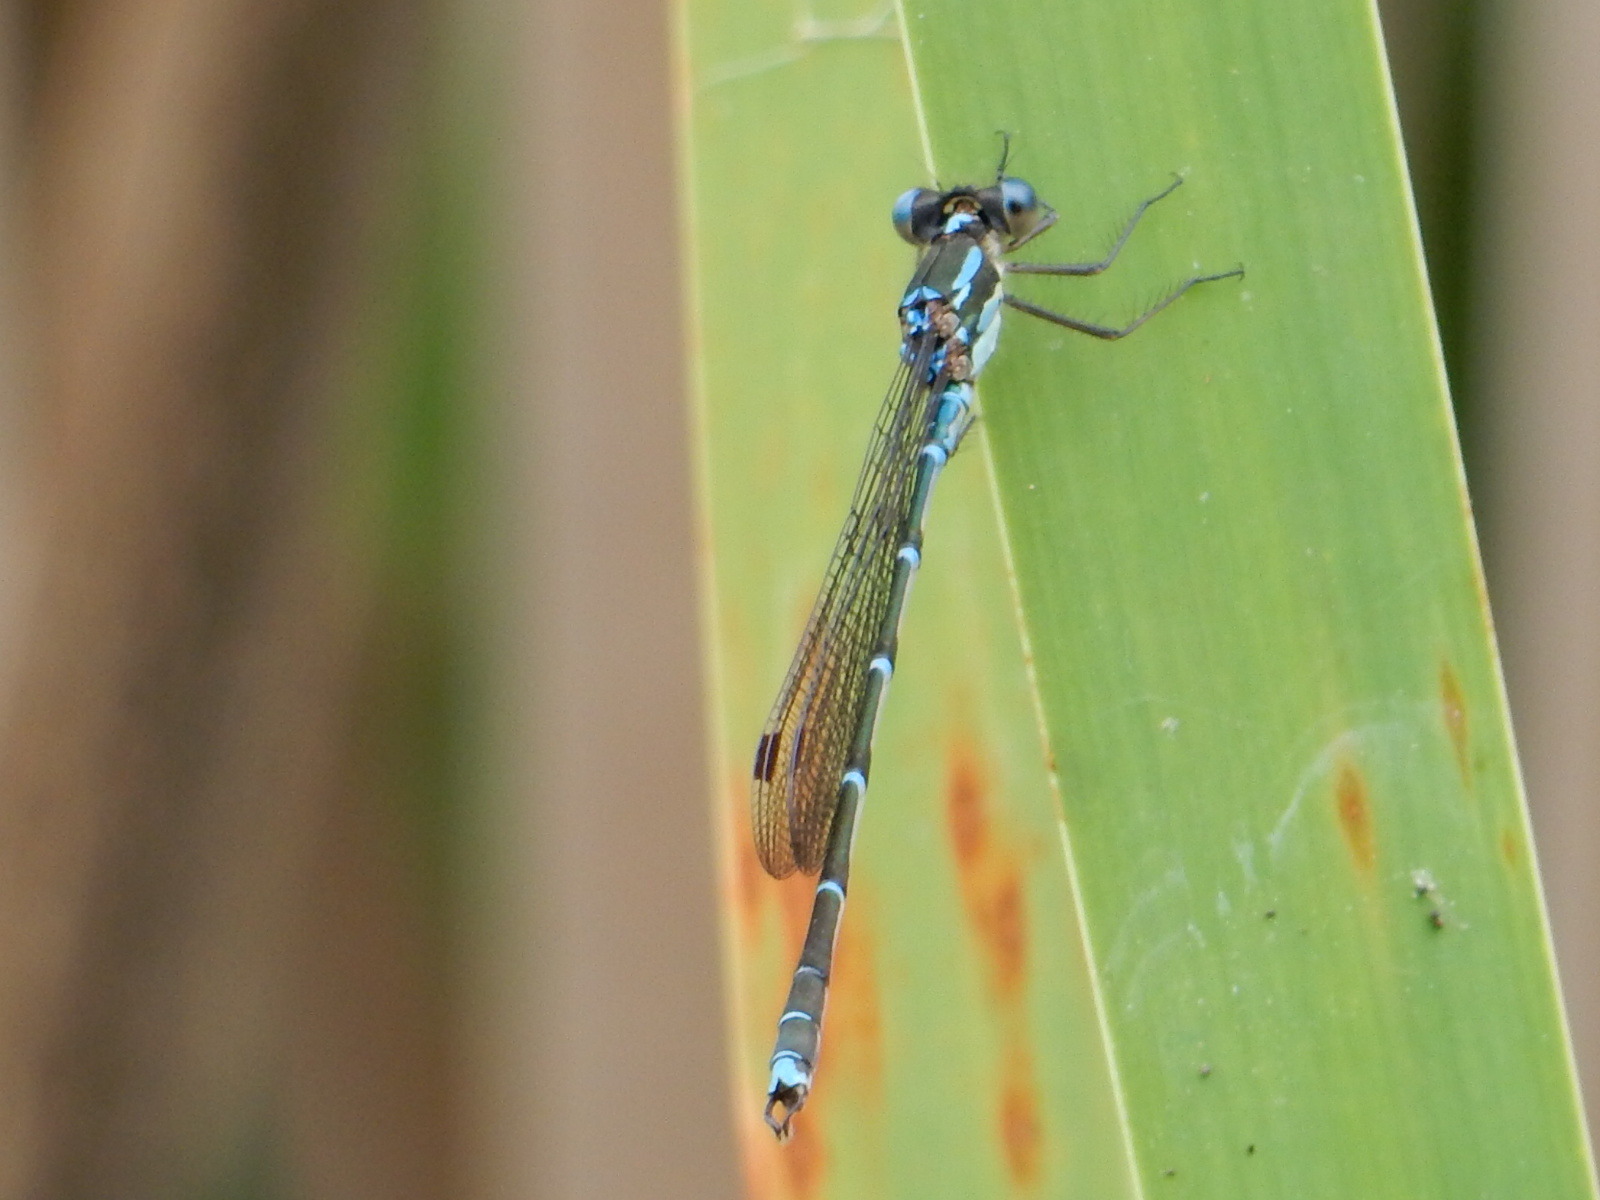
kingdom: Animalia
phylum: Arthropoda
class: Insecta
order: Odonata
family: Lestidae
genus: Austrolestes
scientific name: Austrolestes colensonis
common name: Blue damselfly
